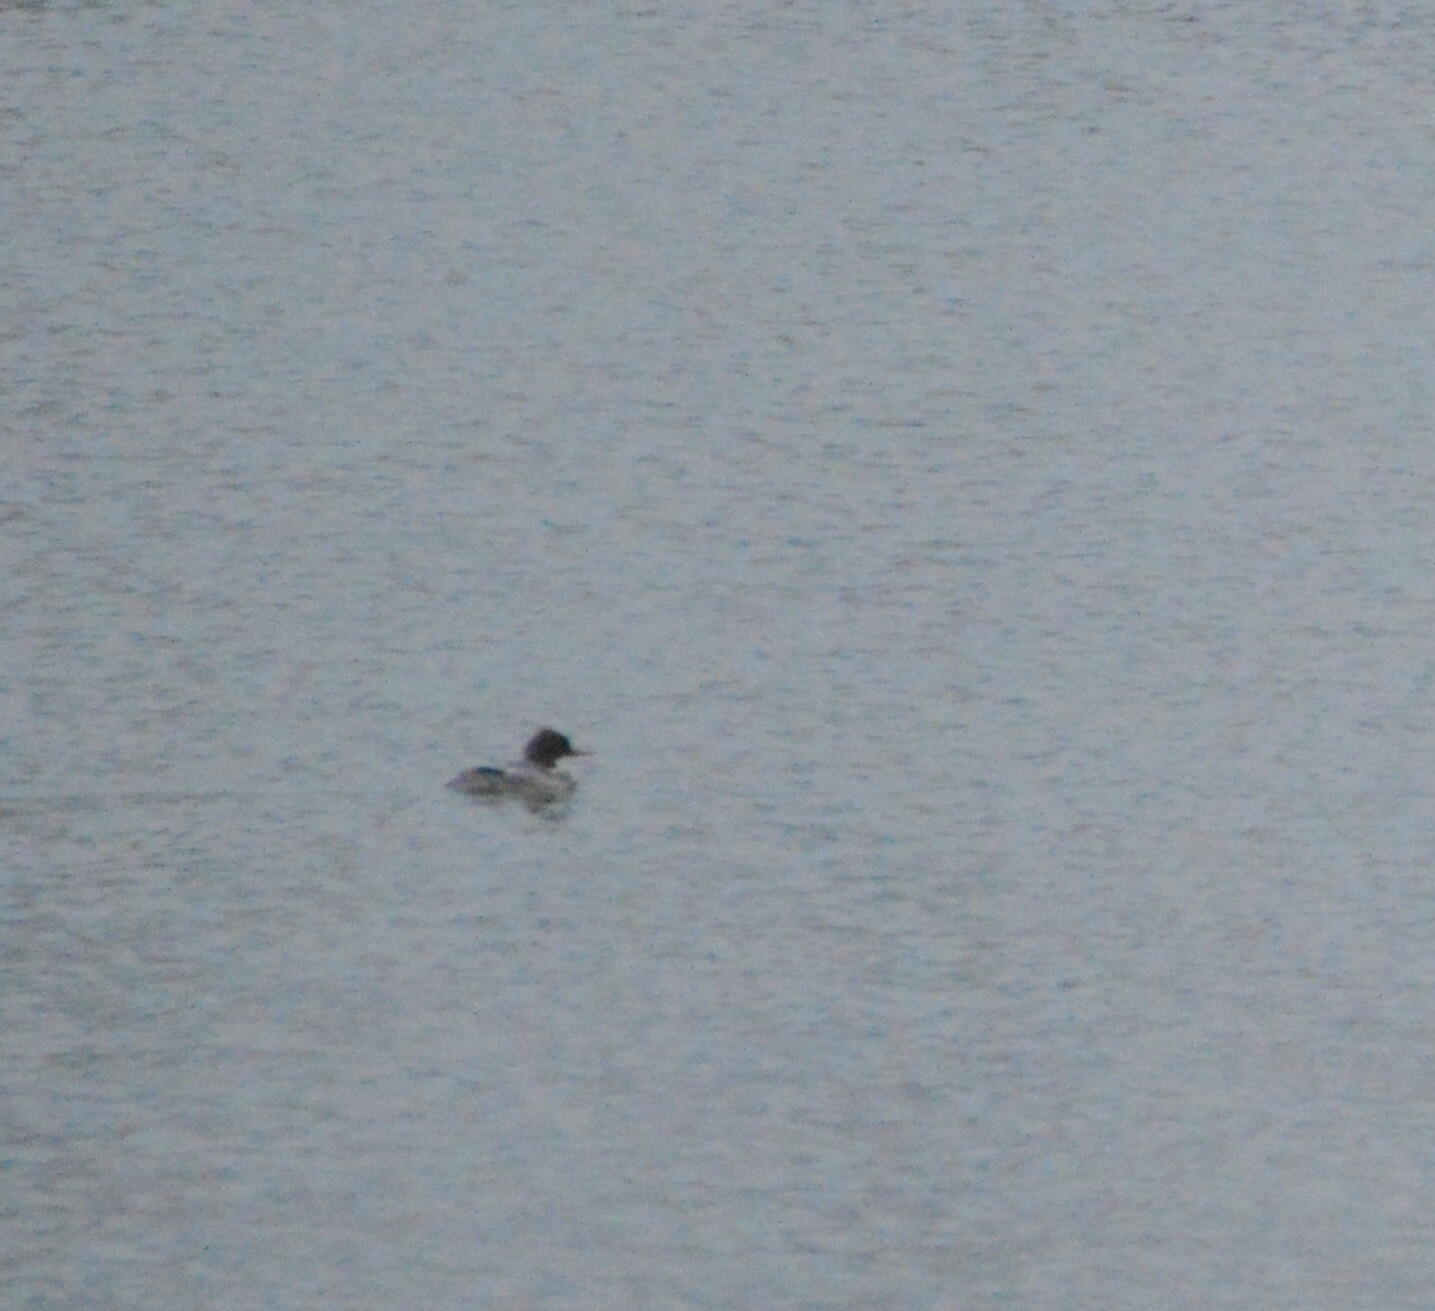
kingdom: Animalia
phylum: Chordata
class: Aves
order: Anseriformes
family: Anatidae
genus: Mergus
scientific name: Mergus serrator
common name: Red-breasted merganser
